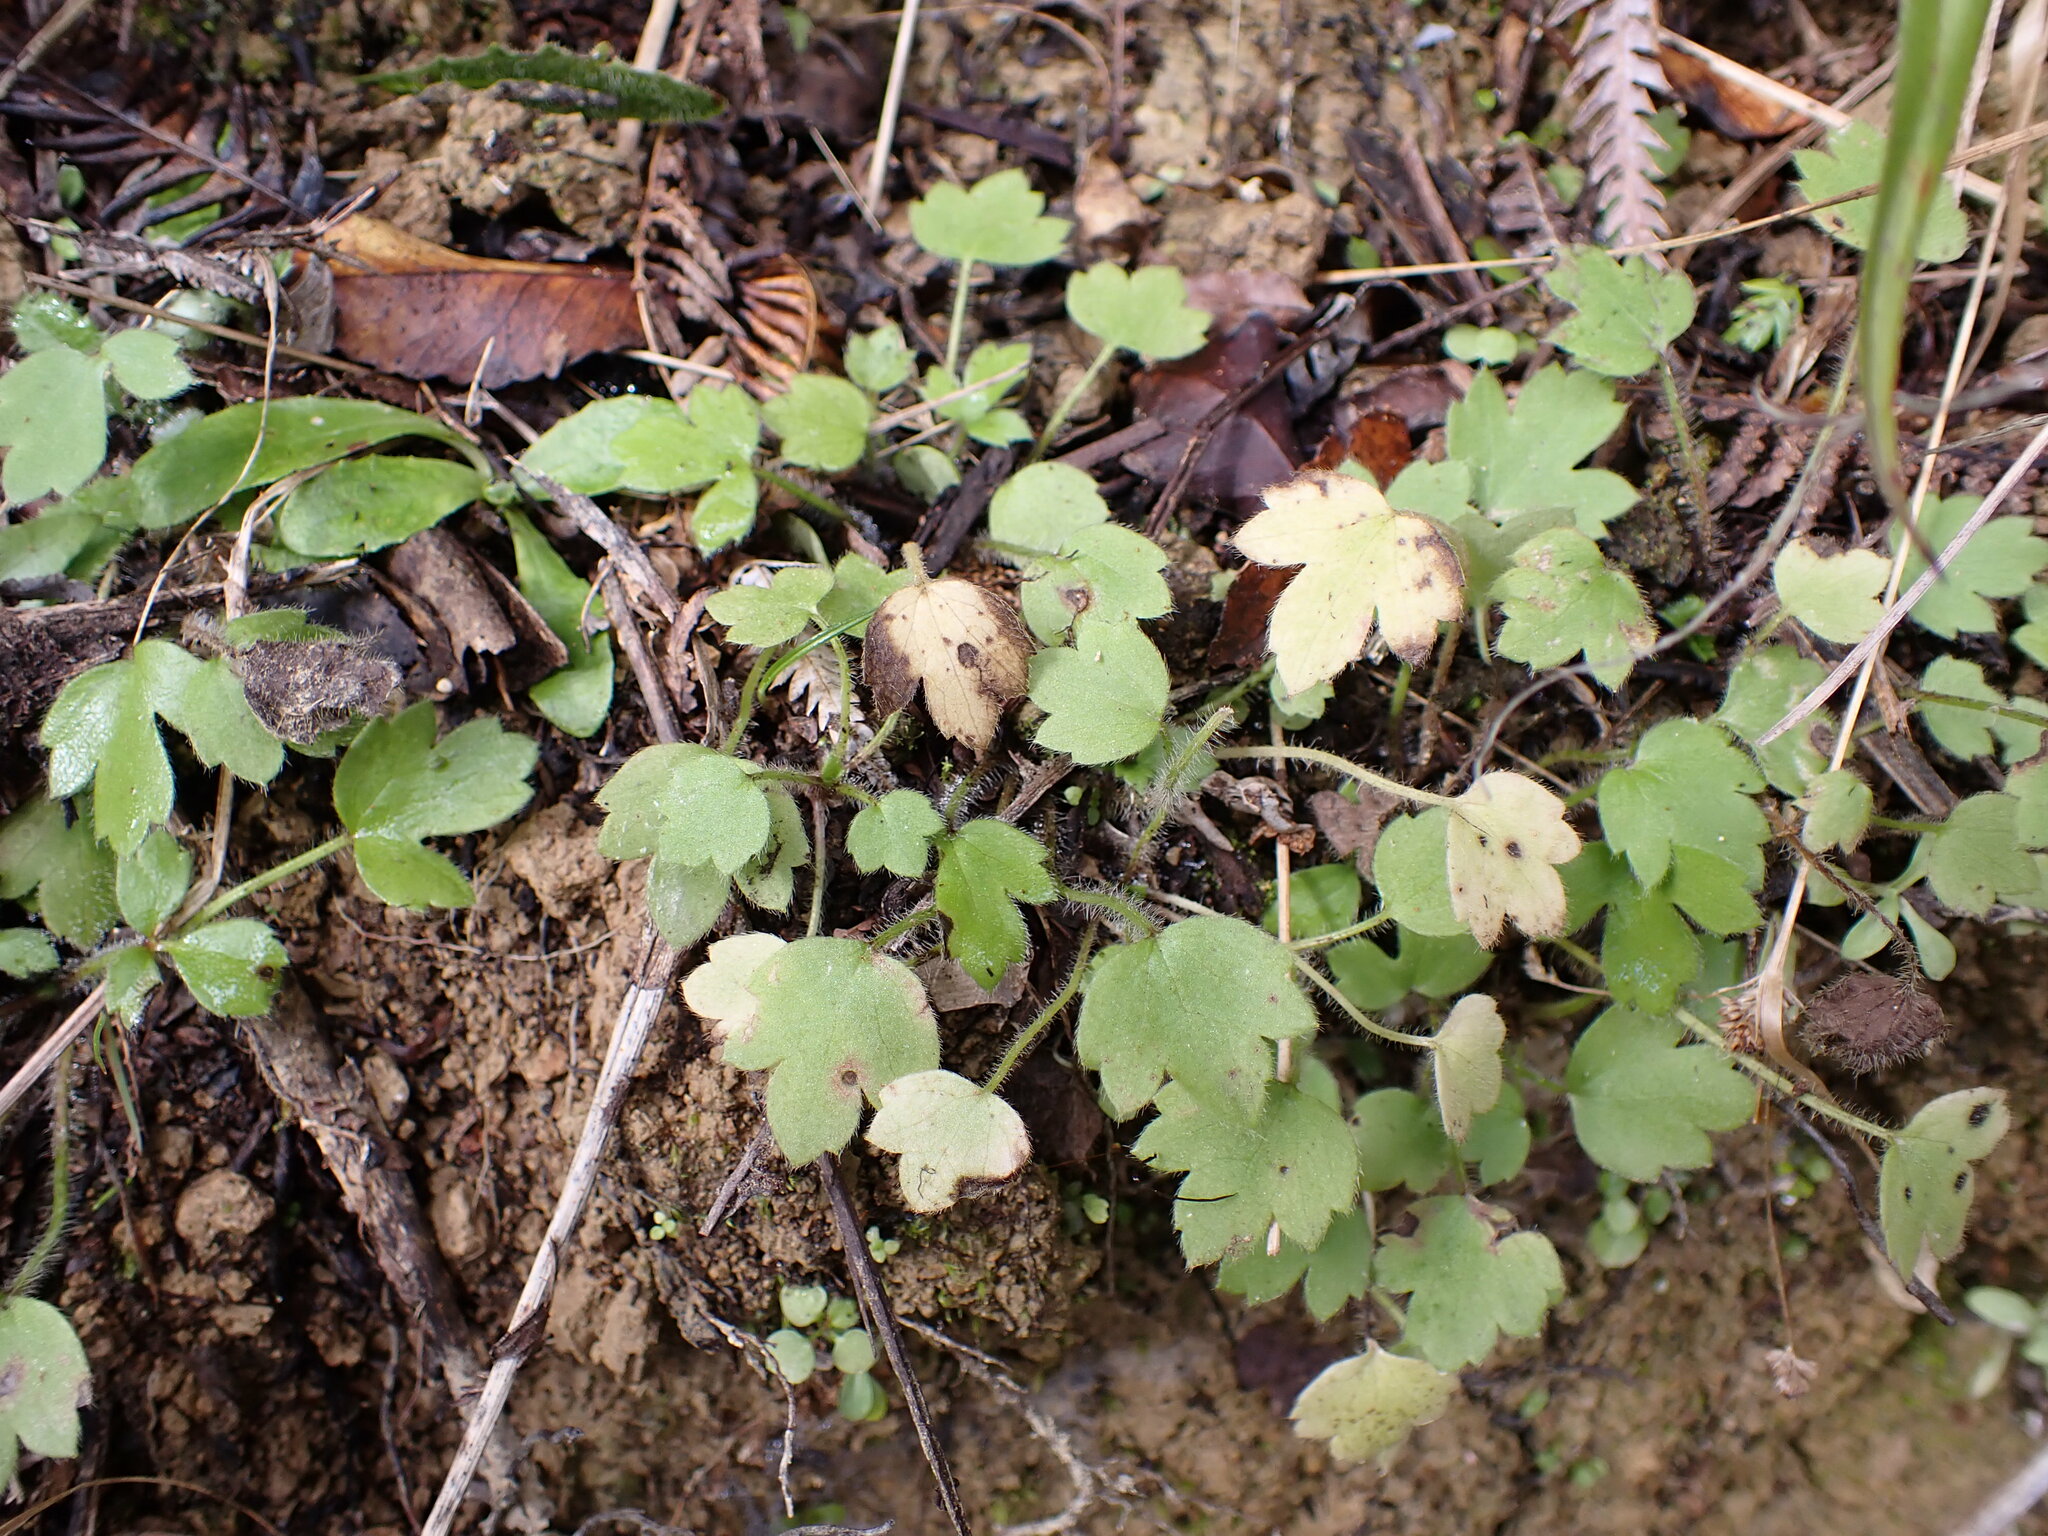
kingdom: Plantae
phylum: Tracheophyta
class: Magnoliopsida
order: Ranunculales
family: Ranunculaceae
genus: Ranunculus
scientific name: Ranunculus reflexus
